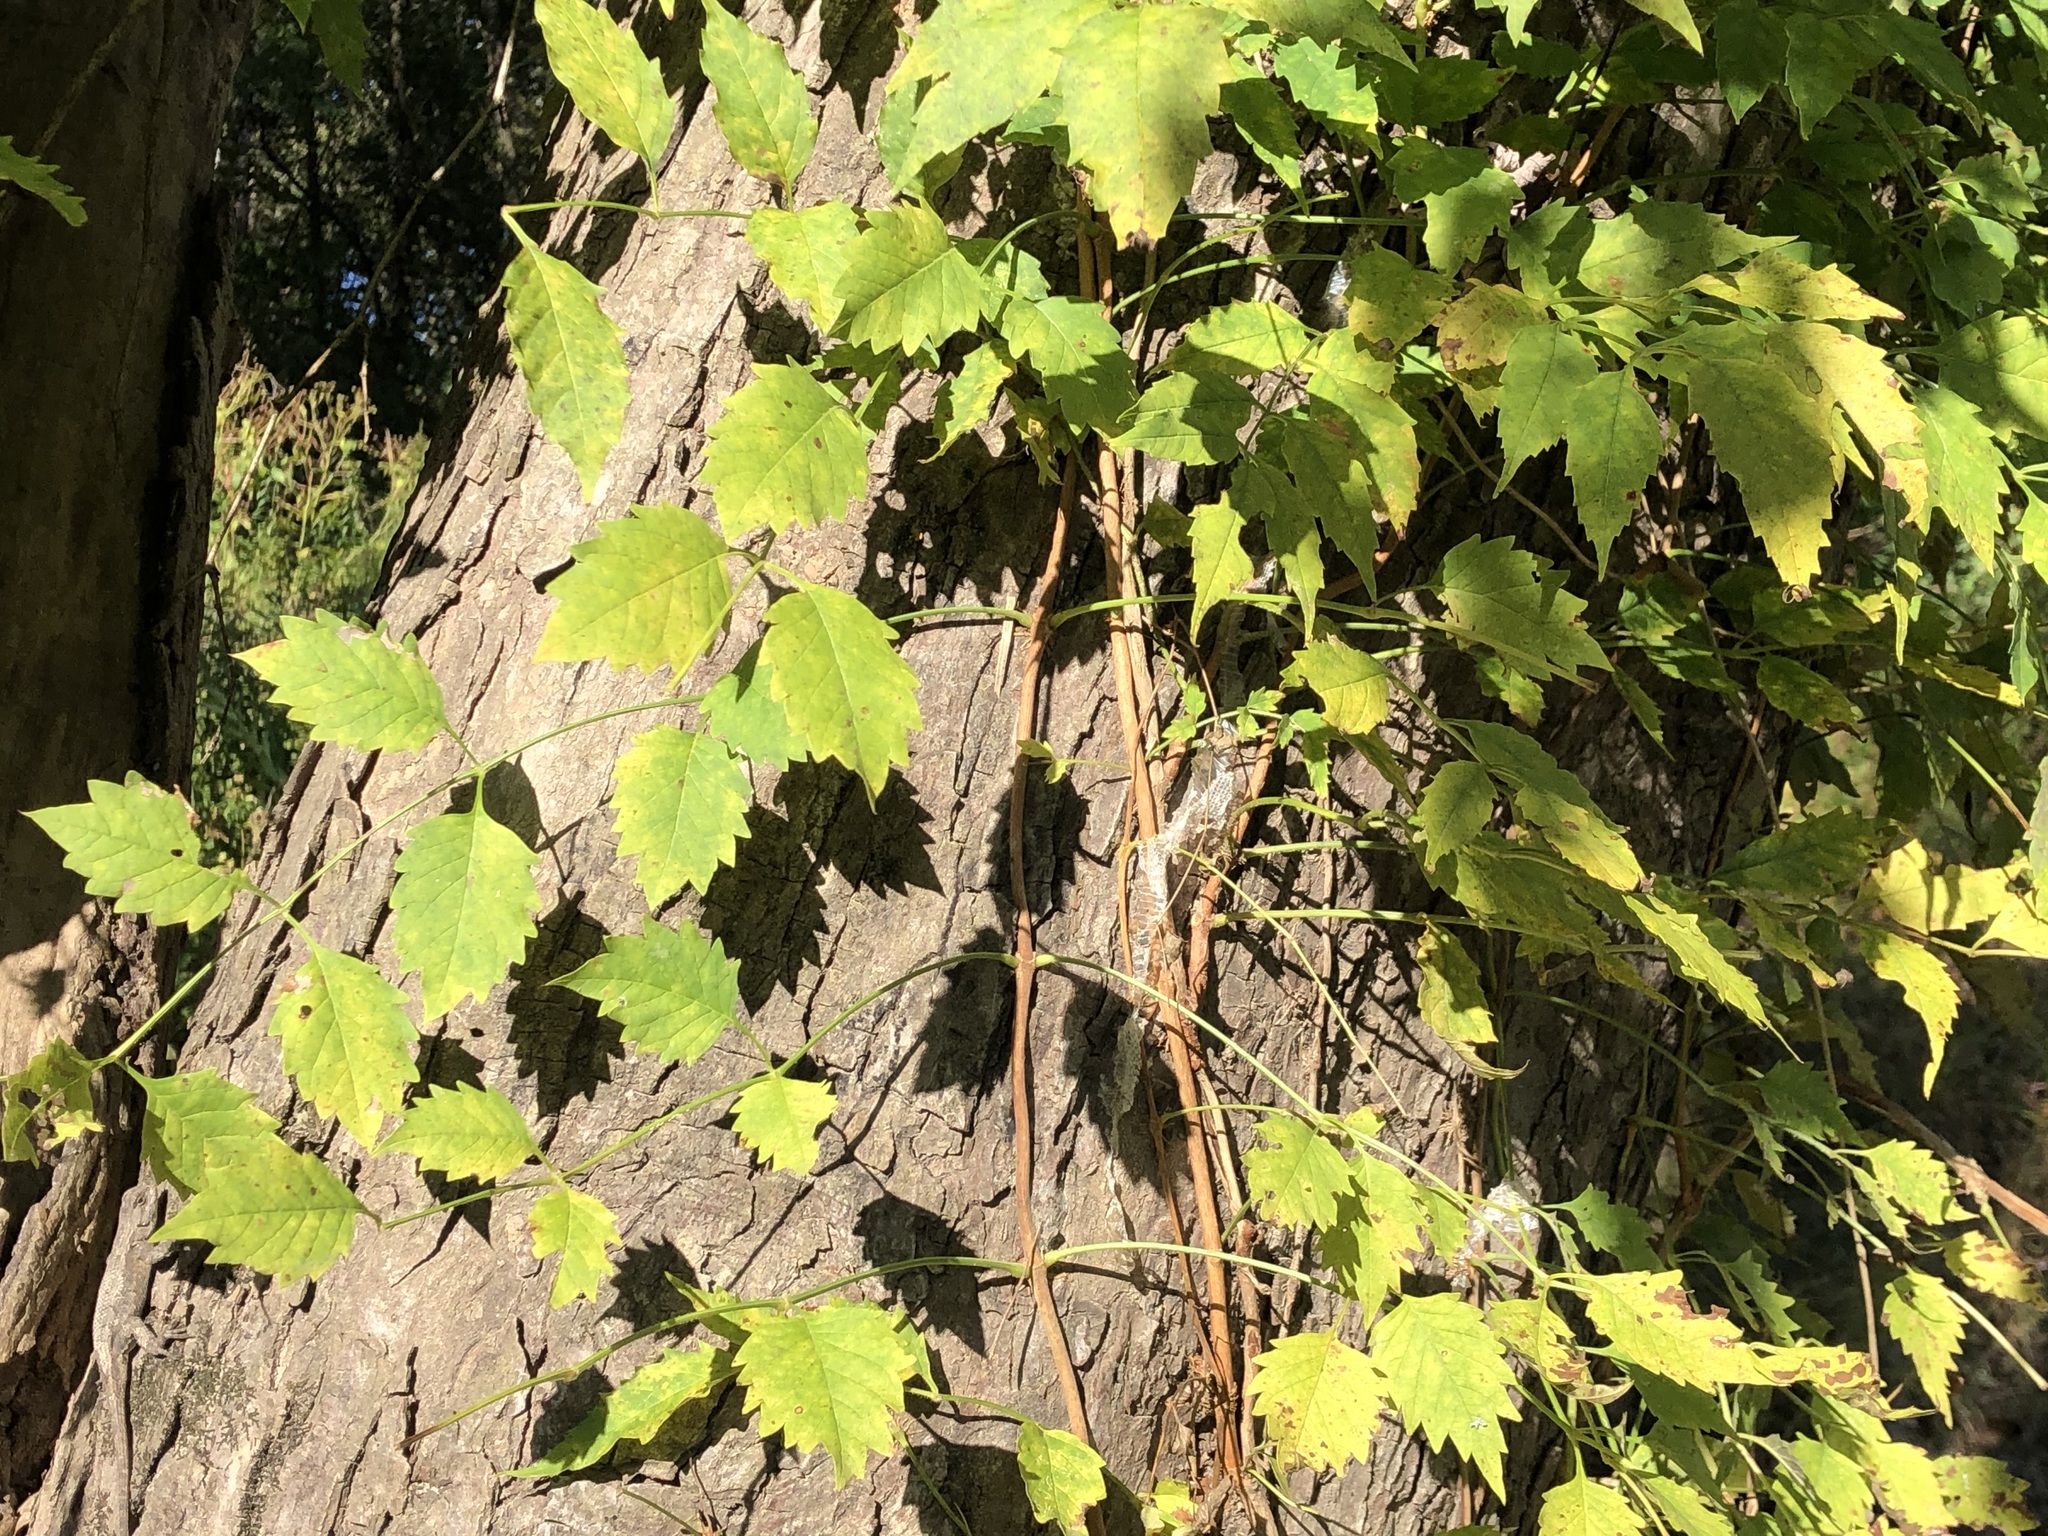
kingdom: Plantae
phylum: Tracheophyta
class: Magnoliopsida
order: Lamiales
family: Bignoniaceae
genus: Campsis
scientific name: Campsis radicans
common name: Trumpet-creeper
